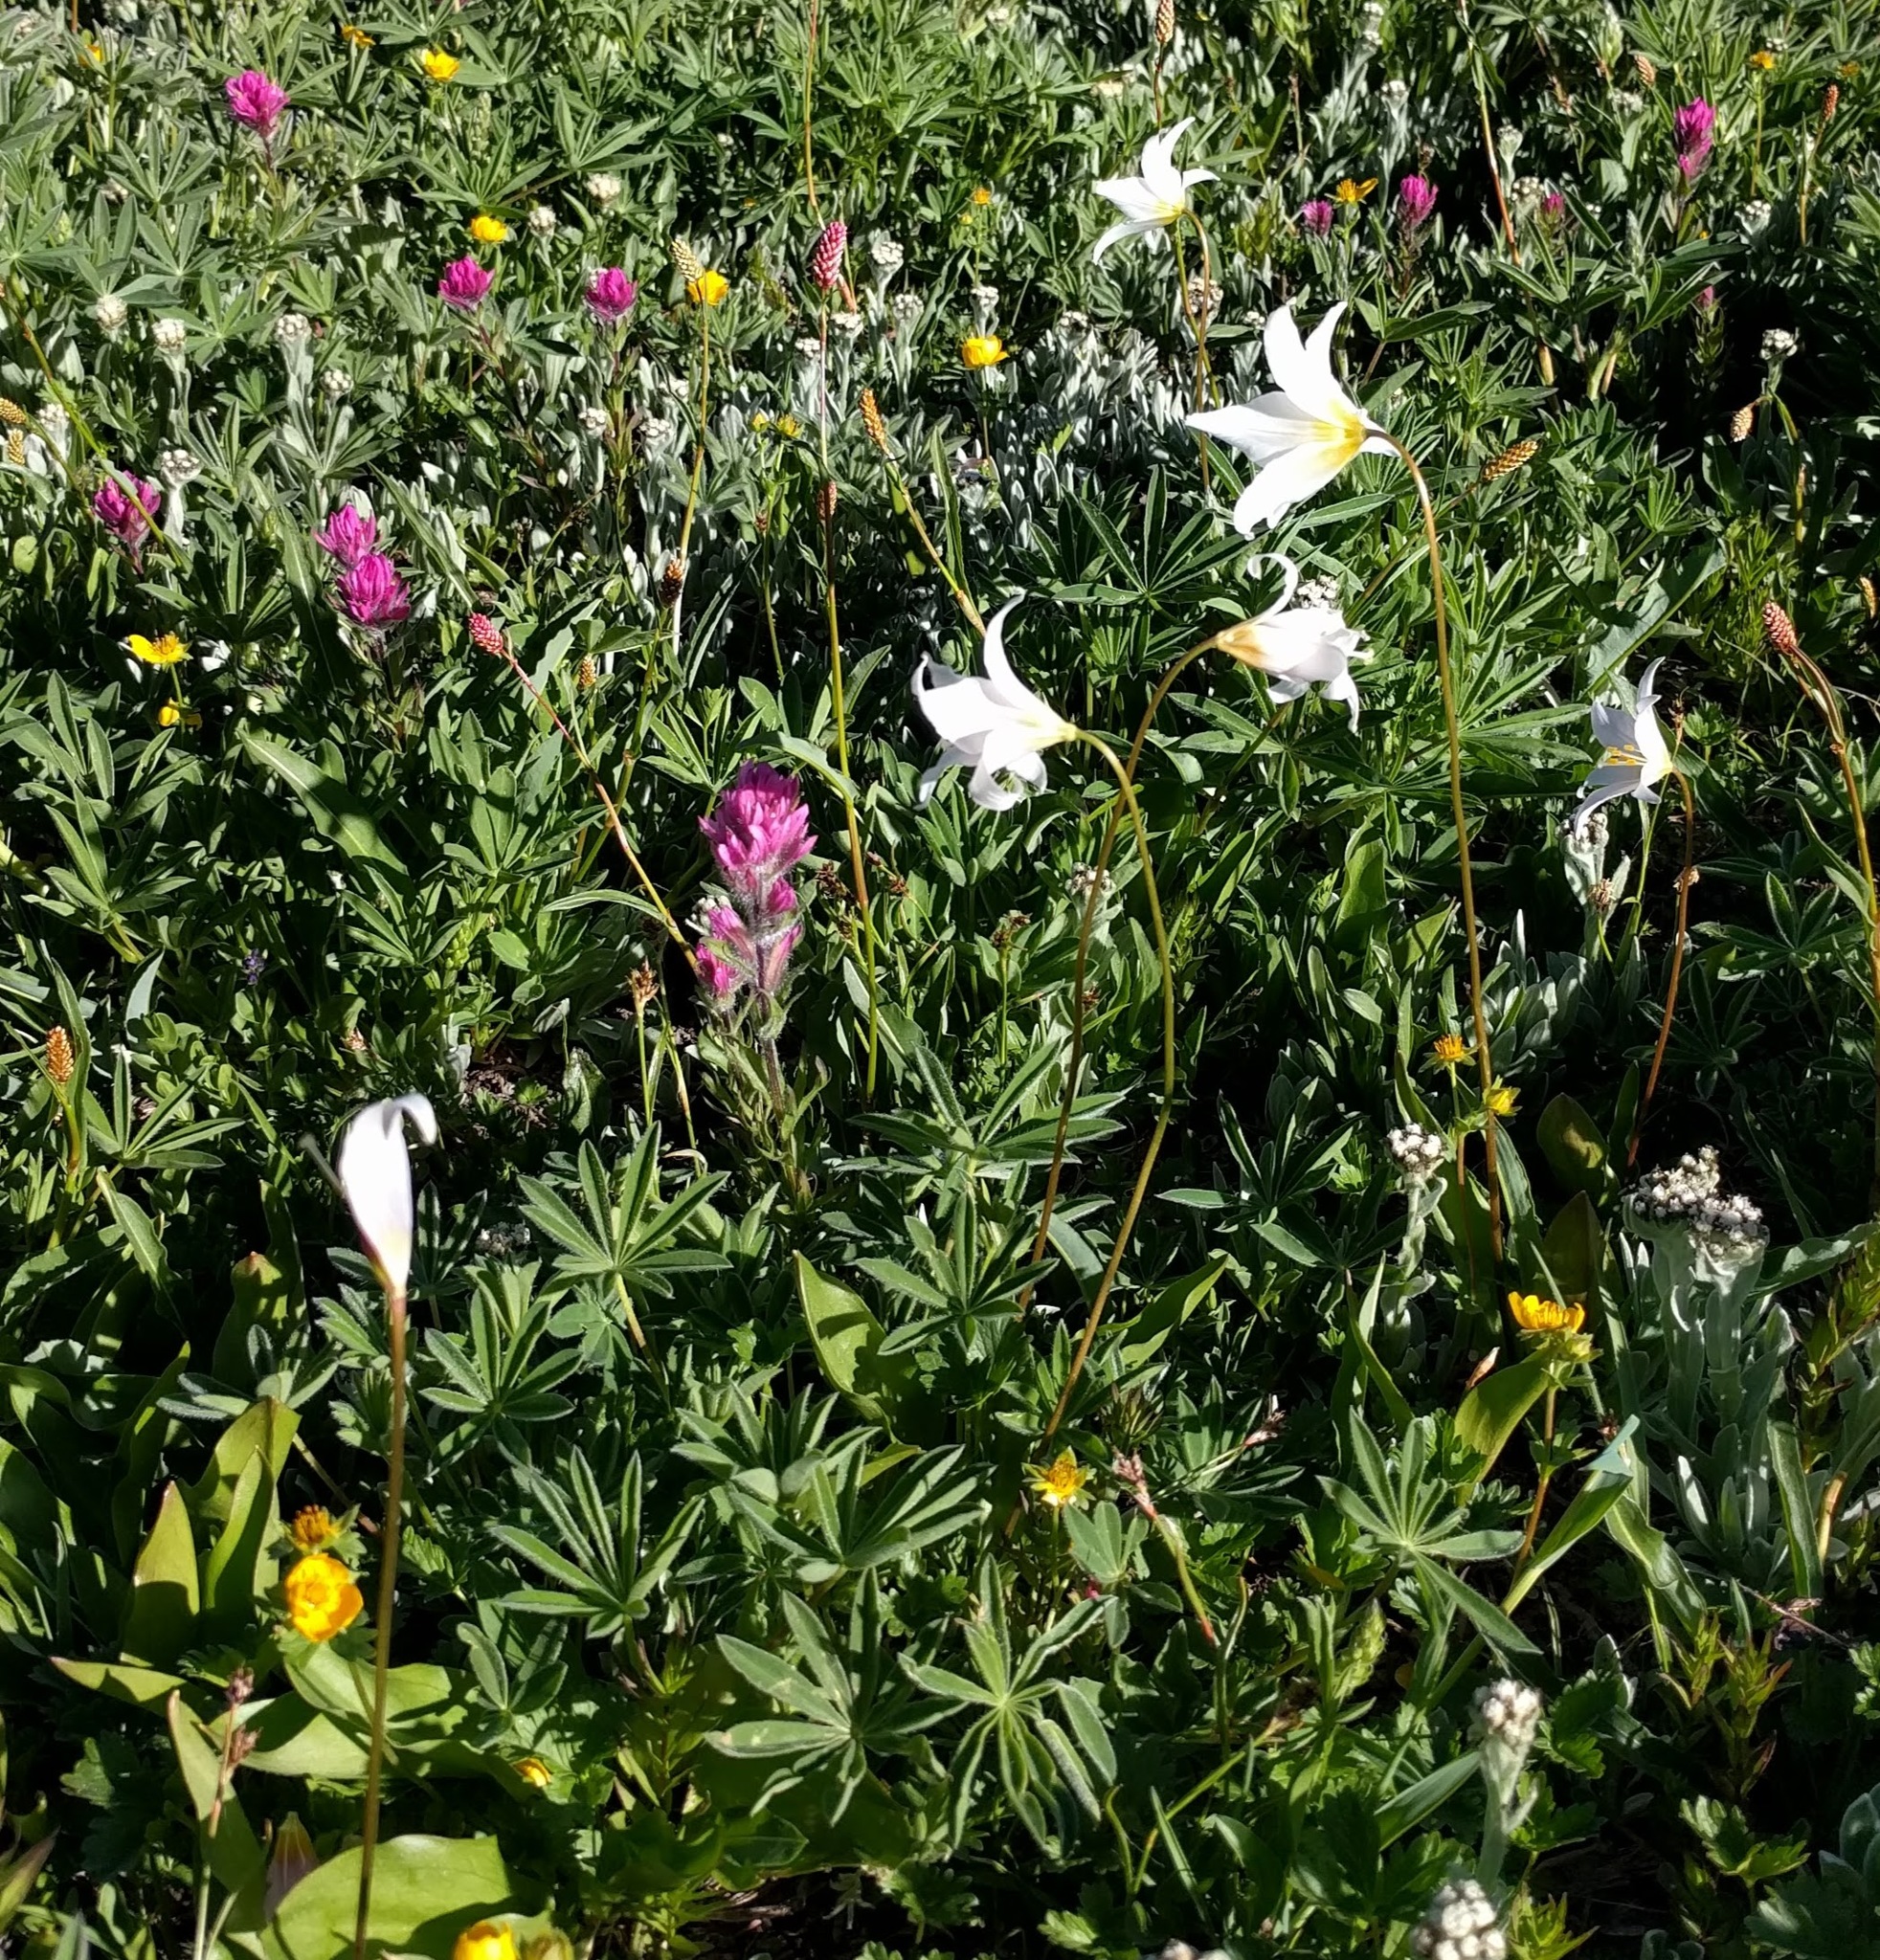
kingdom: Plantae
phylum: Tracheophyta
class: Liliopsida
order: Liliales
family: Liliaceae
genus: Erythronium
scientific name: Erythronium montanum
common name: Avalanche lily
